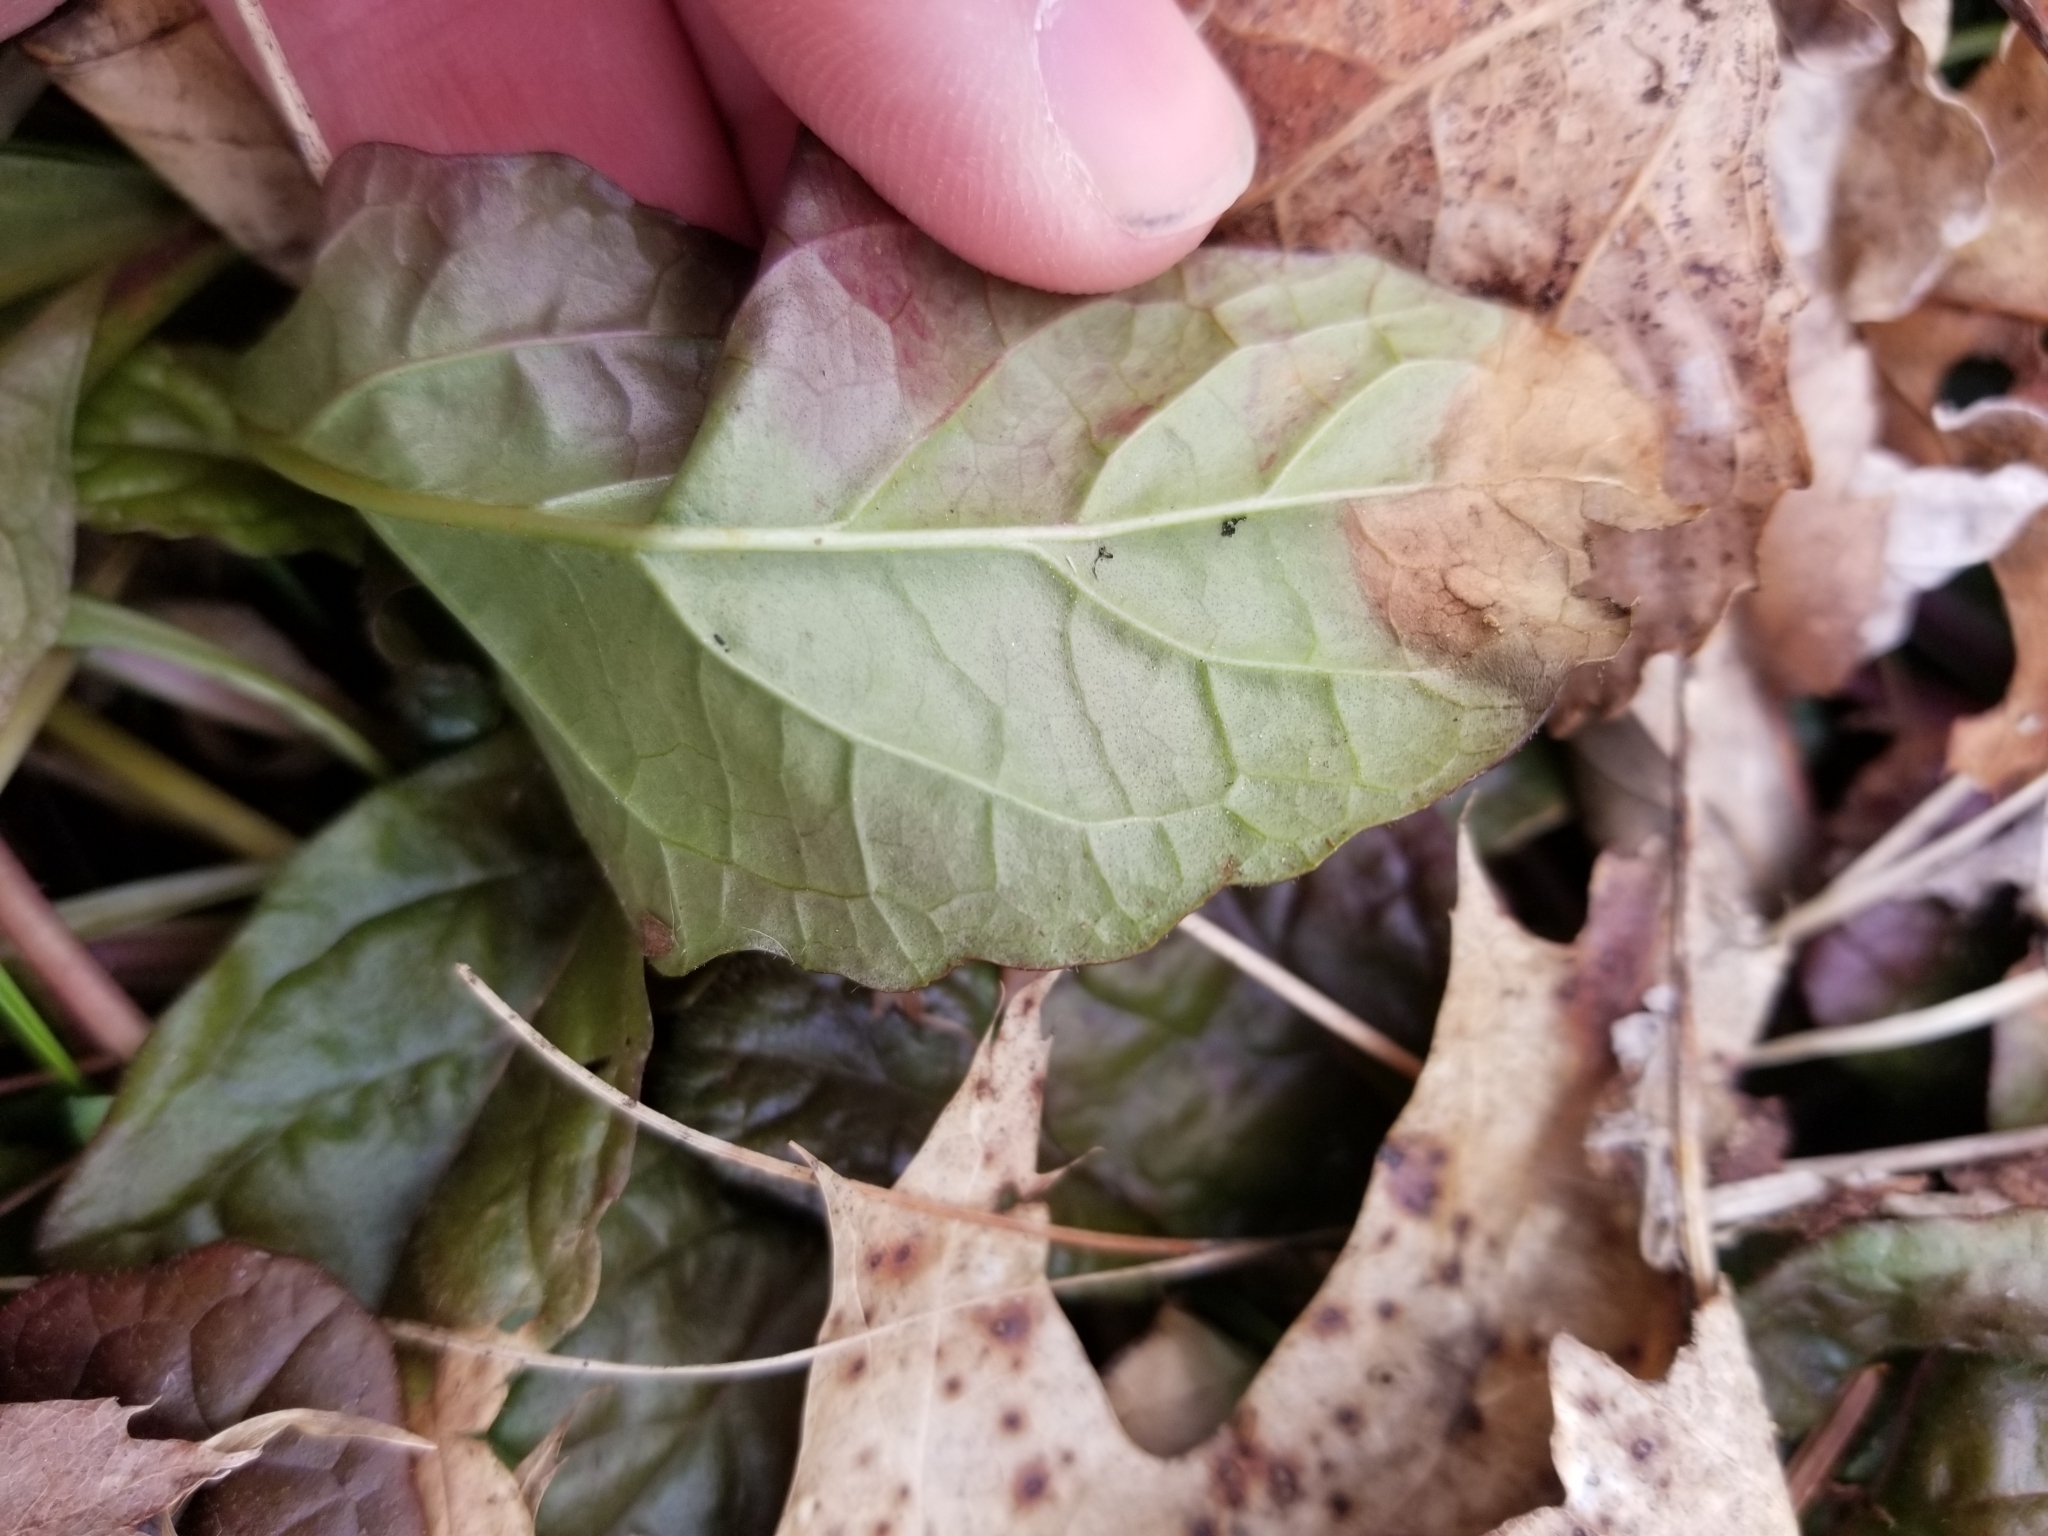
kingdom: Plantae
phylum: Tracheophyta
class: Magnoliopsida
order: Lamiales
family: Lamiaceae
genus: Ajuga
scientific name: Ajuga reptans
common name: Bugle
